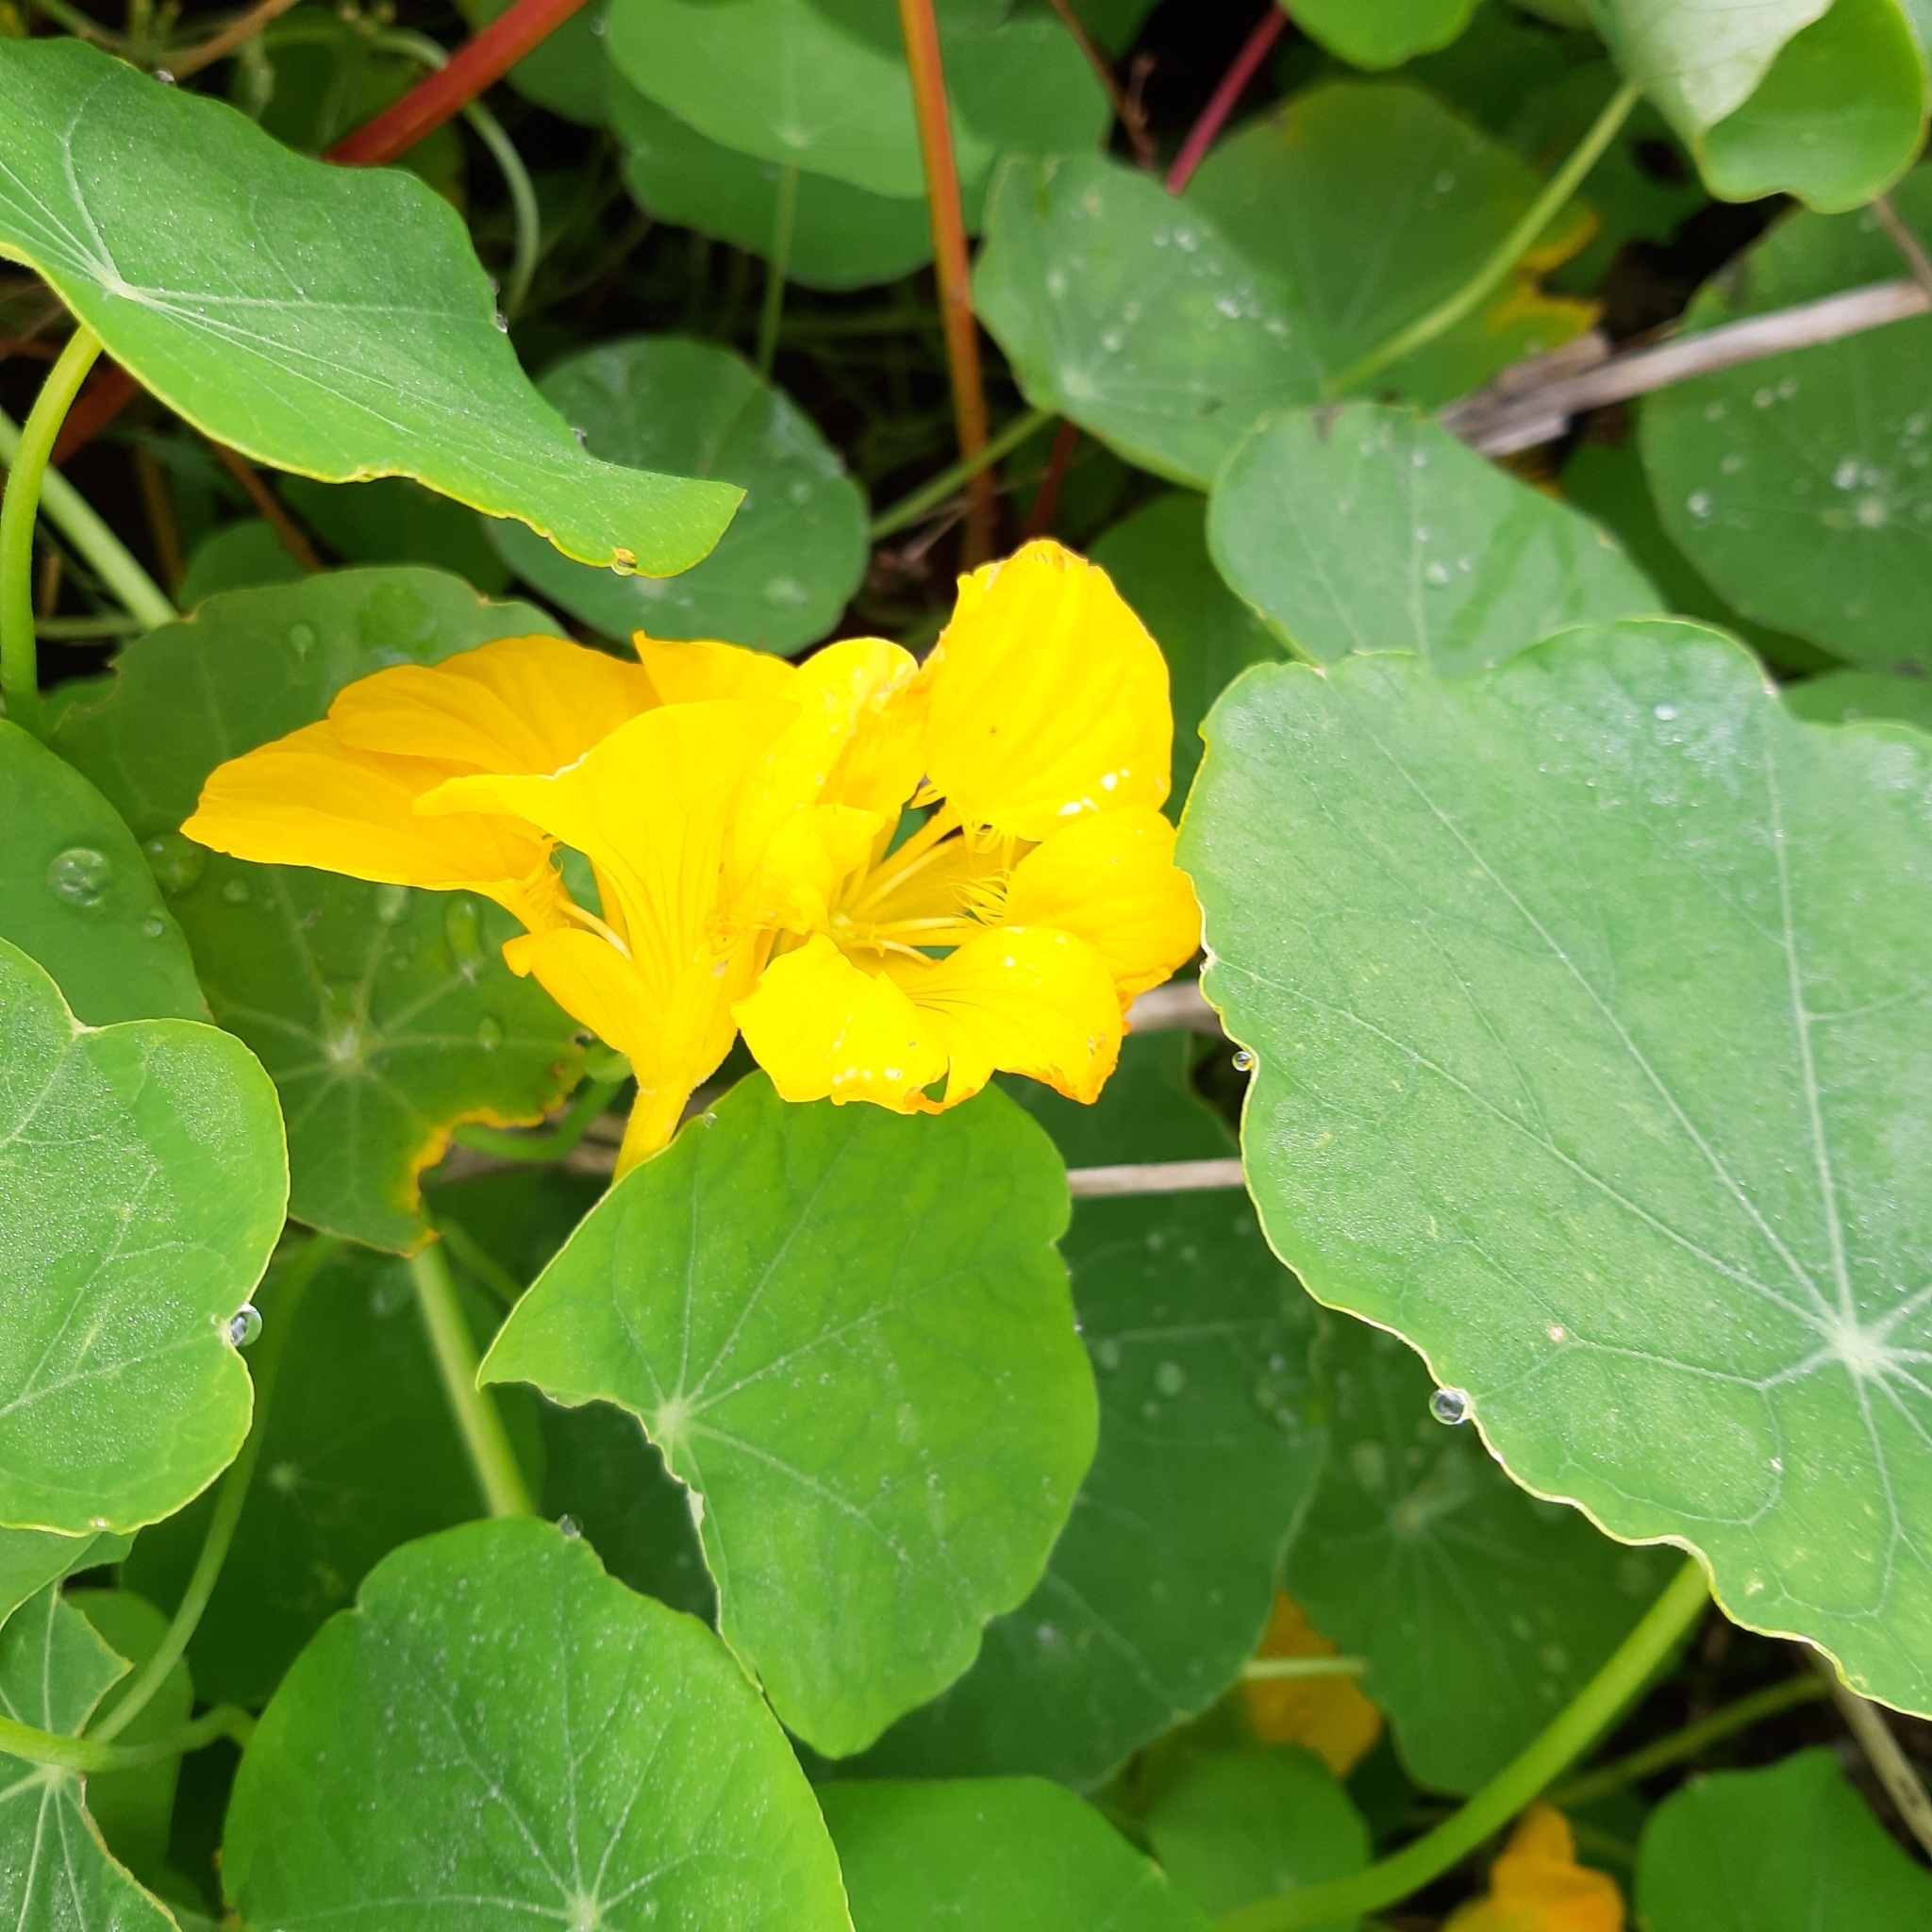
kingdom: Plantae
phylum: Tracheophyta
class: Magnoliopsida
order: Brassicales
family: Tropaeolaceae
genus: Tropaeolum
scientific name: Tropaeolum majus
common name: Nasturtium
